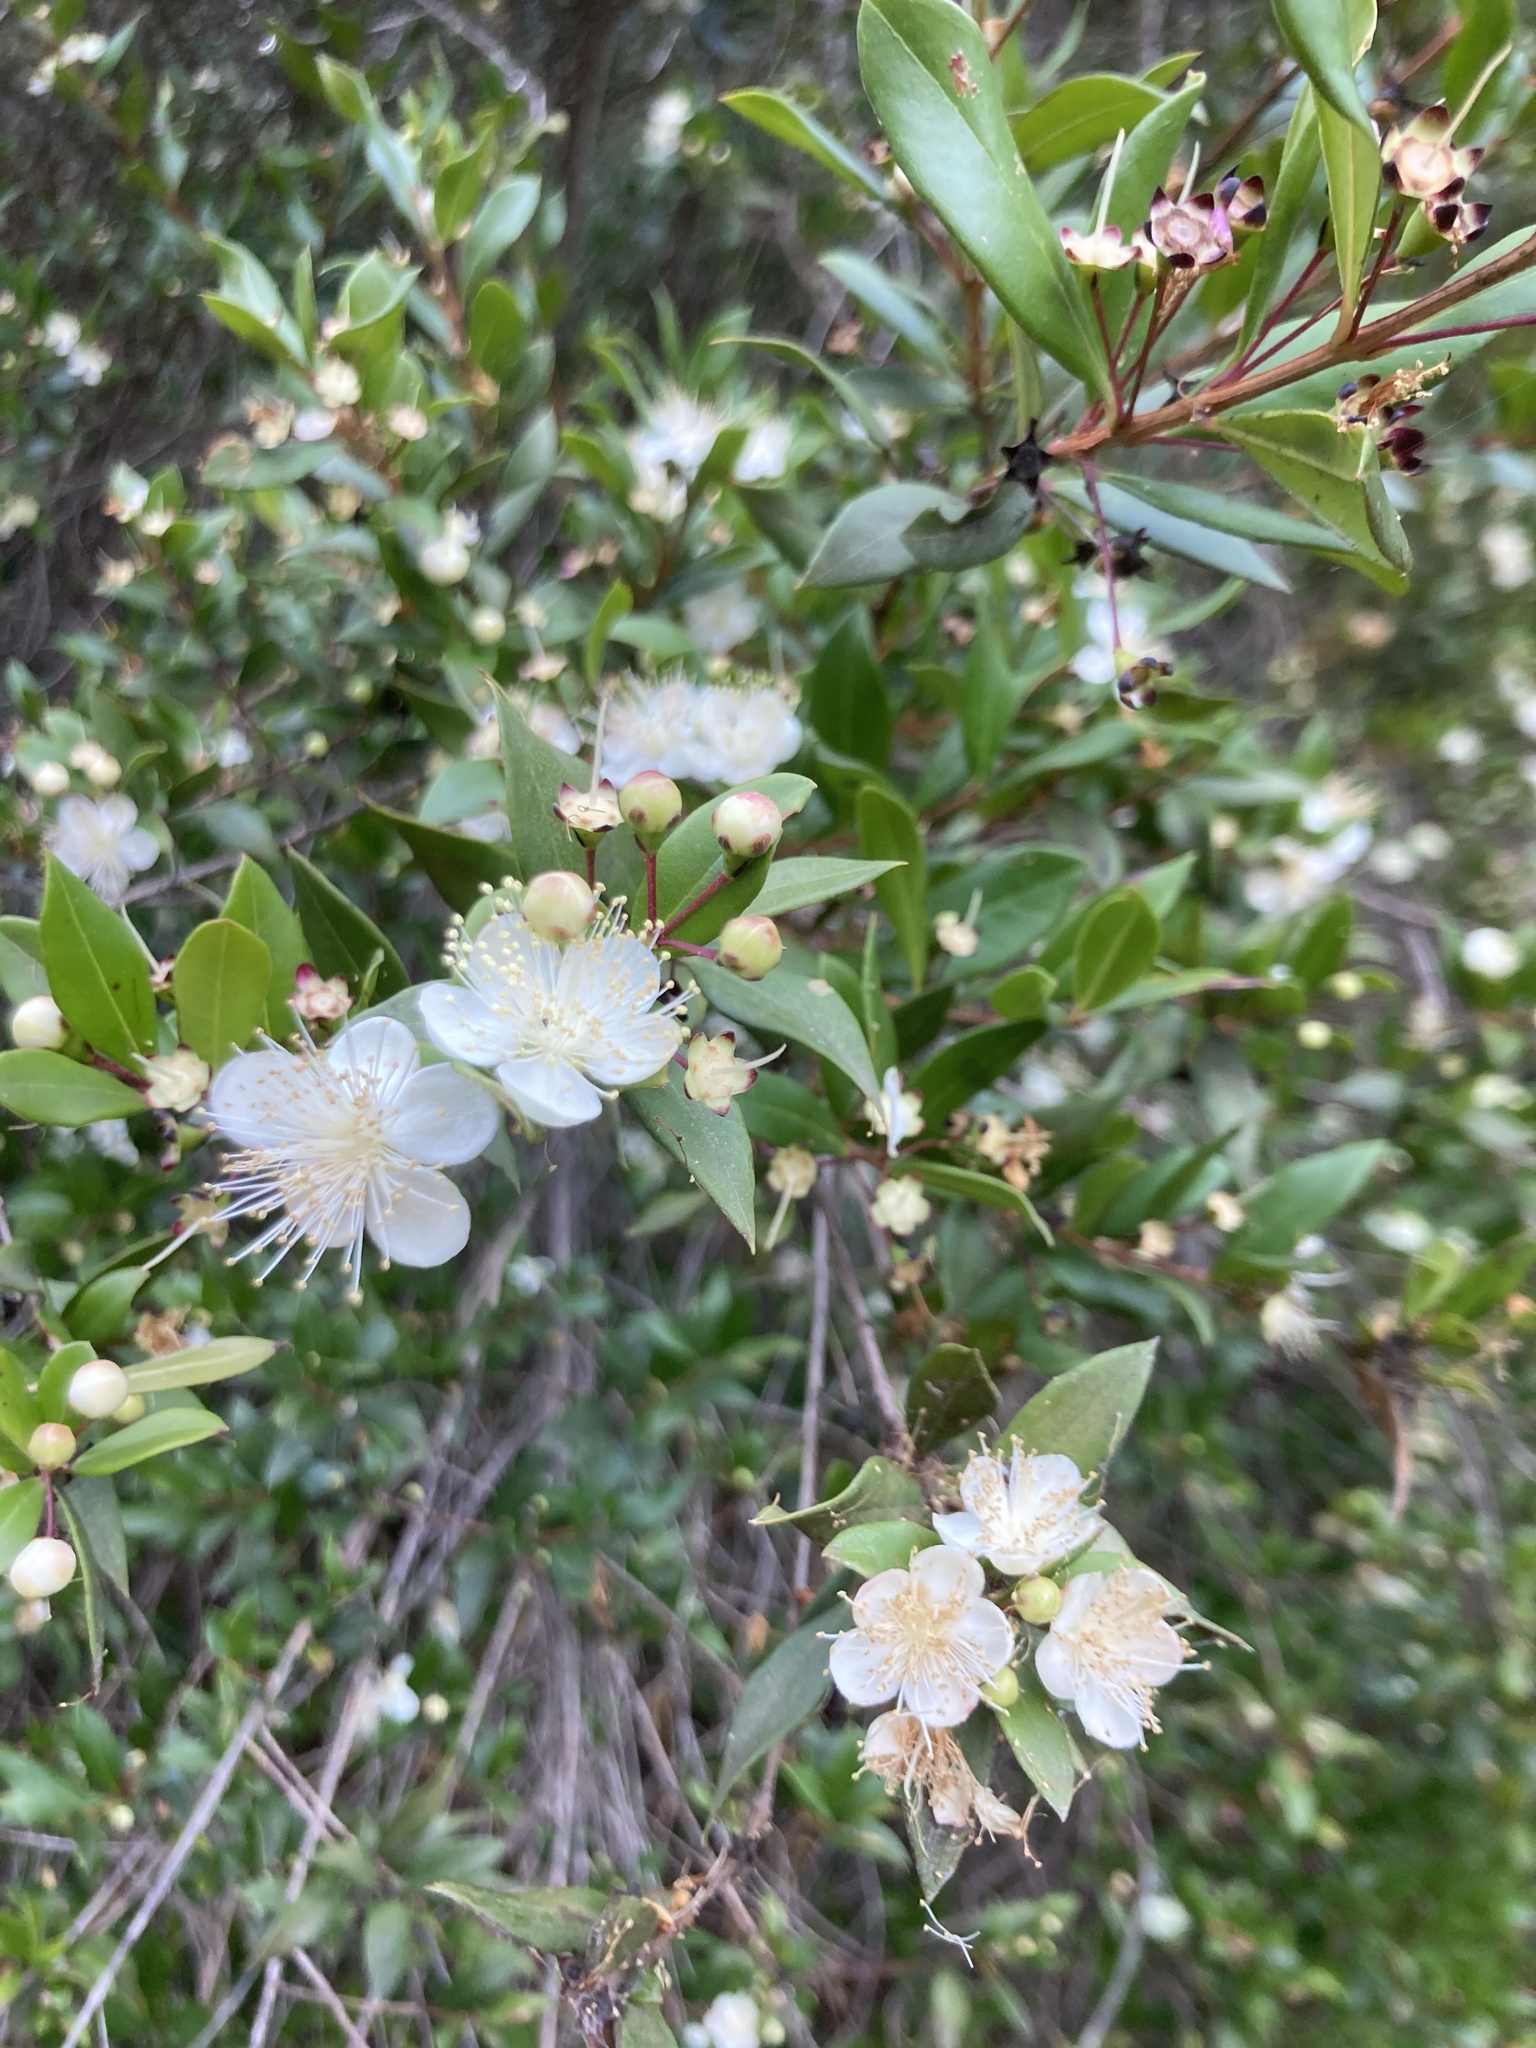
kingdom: Plantae
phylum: Tracheophyta
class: Magnoliopsida
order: Myrtales
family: Myrtaceae
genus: Myrtus
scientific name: Myrtus communis
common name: Myrtle
